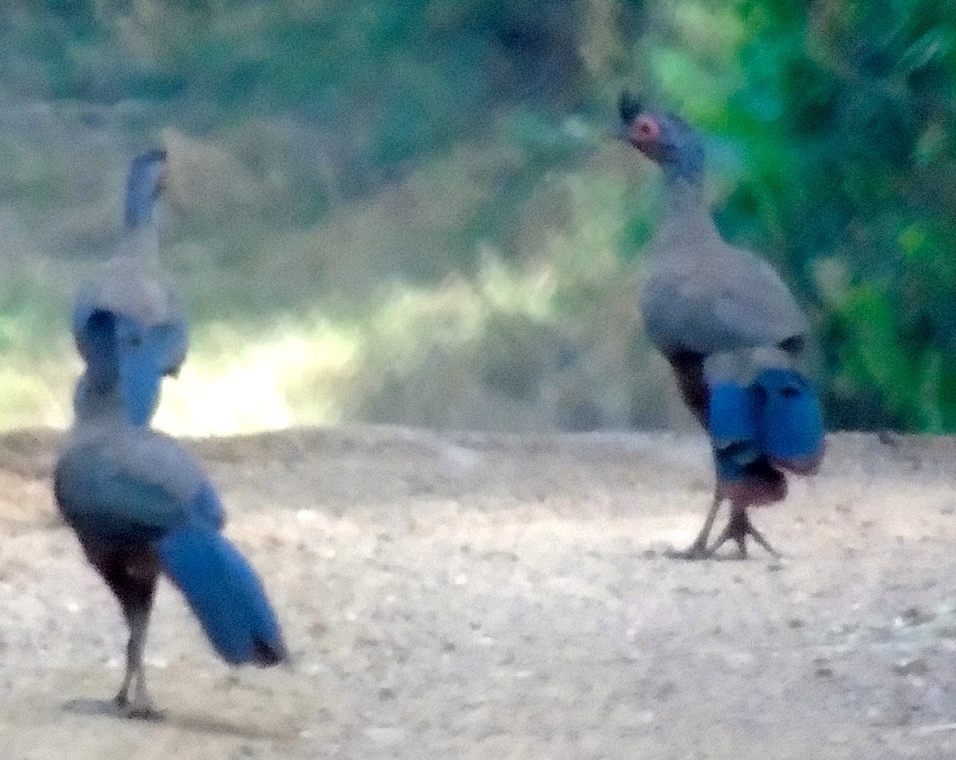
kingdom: Animalia
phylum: Chordata
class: Aves
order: Galliformes
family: Cracidae
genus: Ortalis
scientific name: Ortalis wagleri
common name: Rufous-bellied chachalaca
